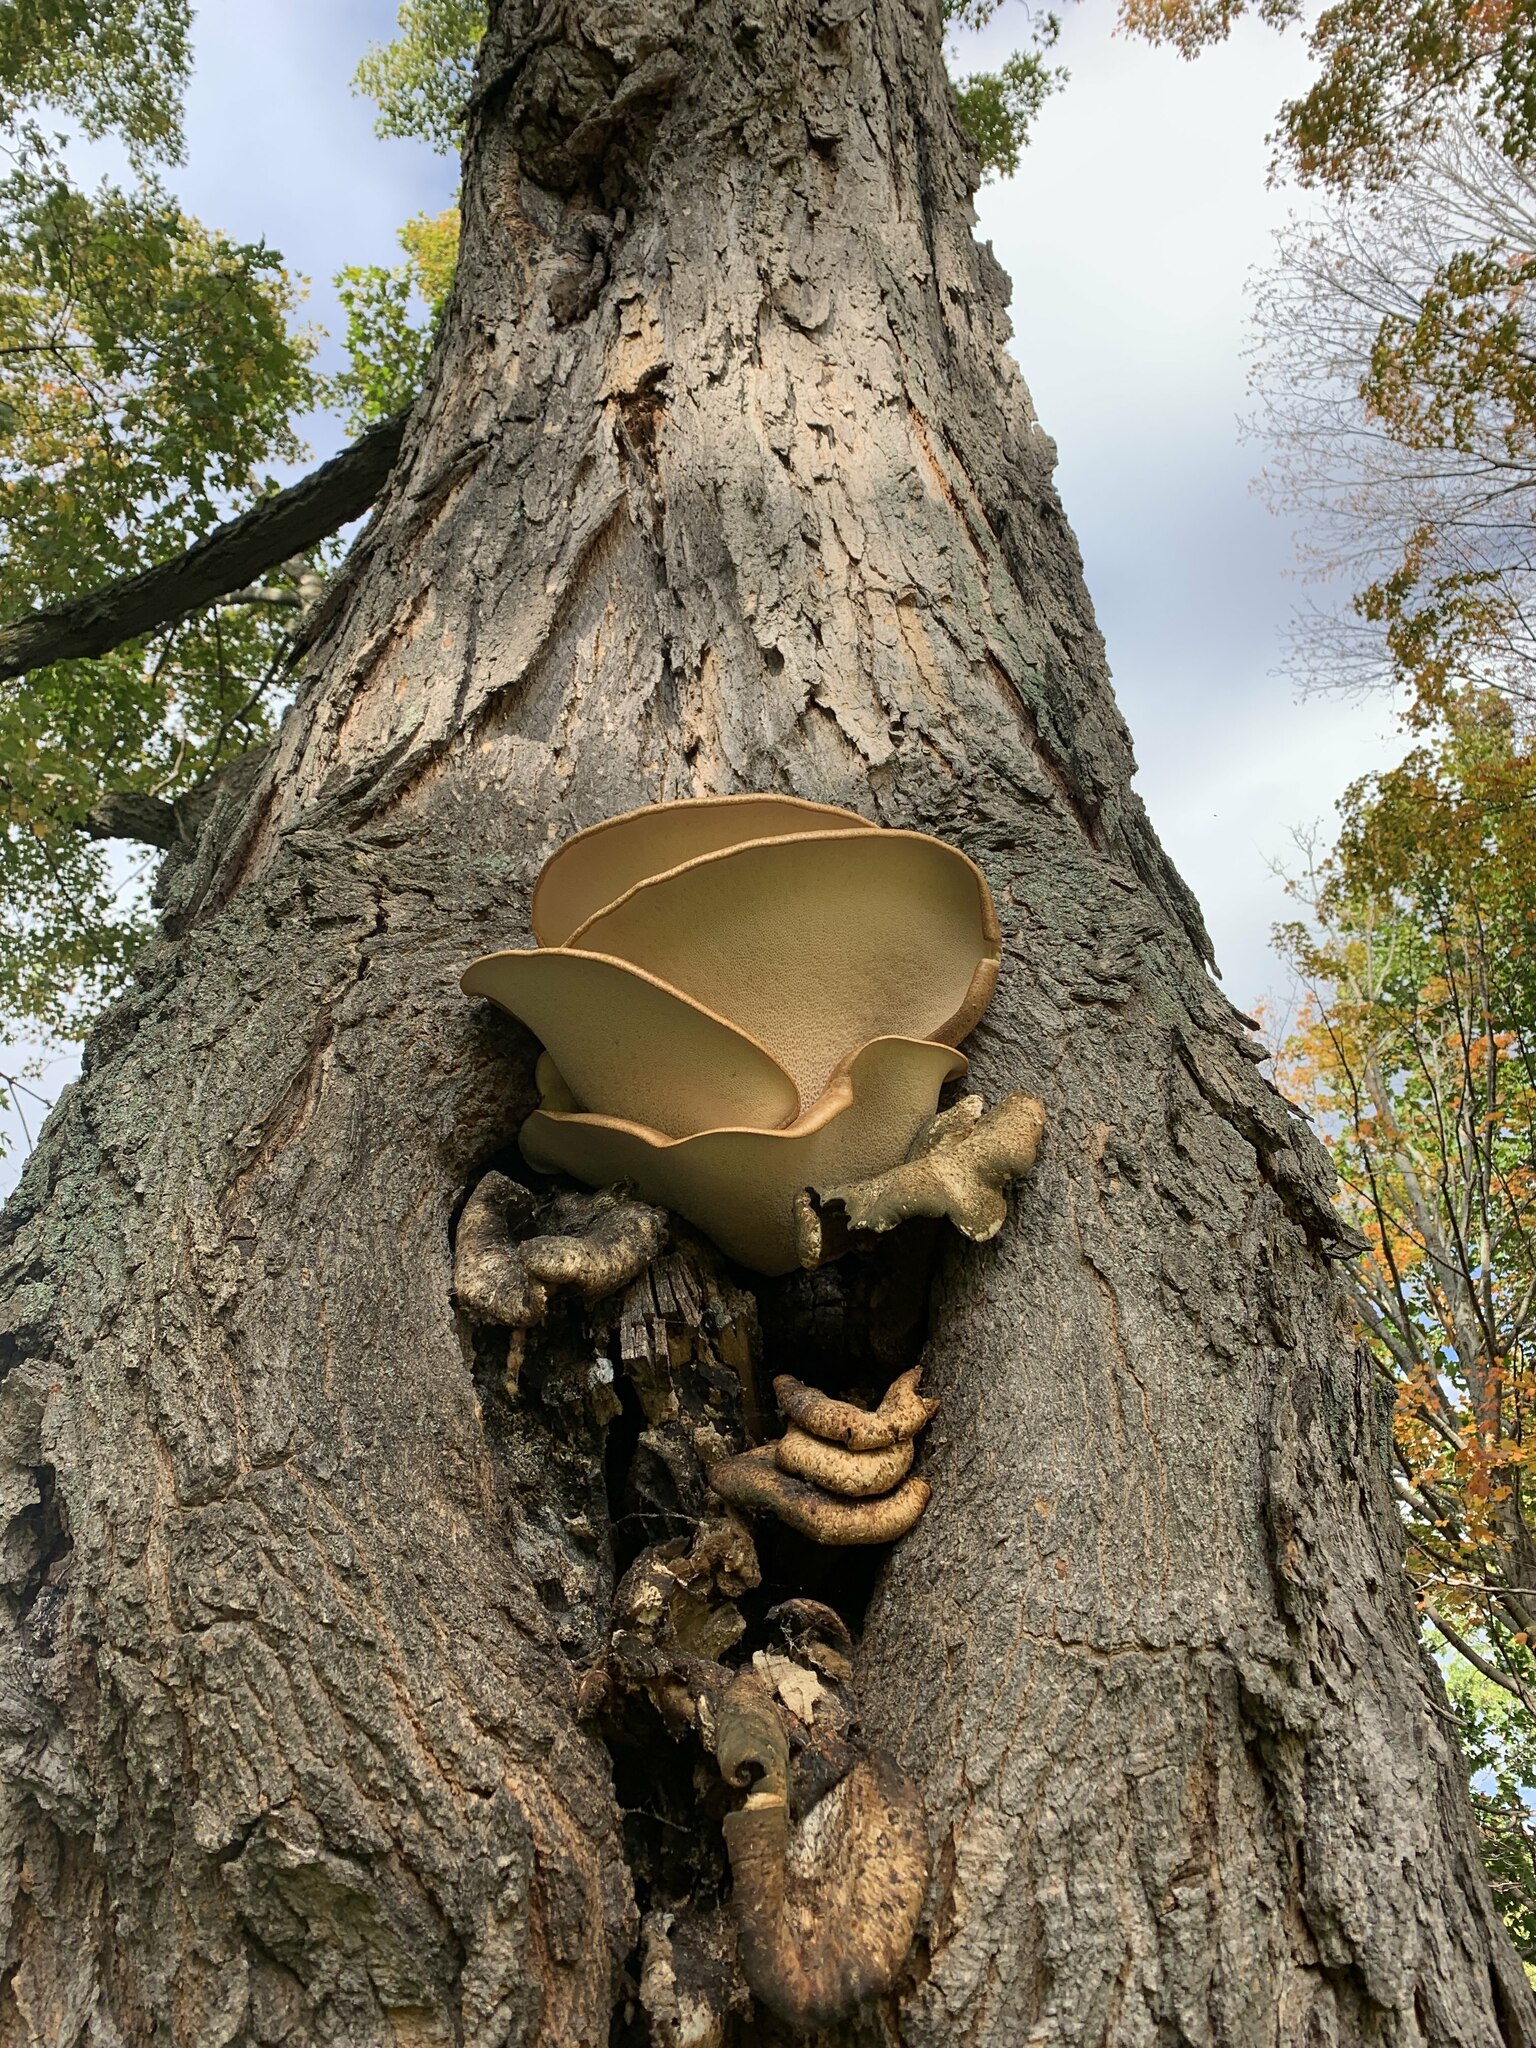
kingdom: Fungi
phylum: Basidiomycota
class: Agaricomycetes
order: Polyporales
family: Polyporaceae
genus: Cerioporus
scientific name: Cerioporus squamosus
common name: Dryad's saddle
